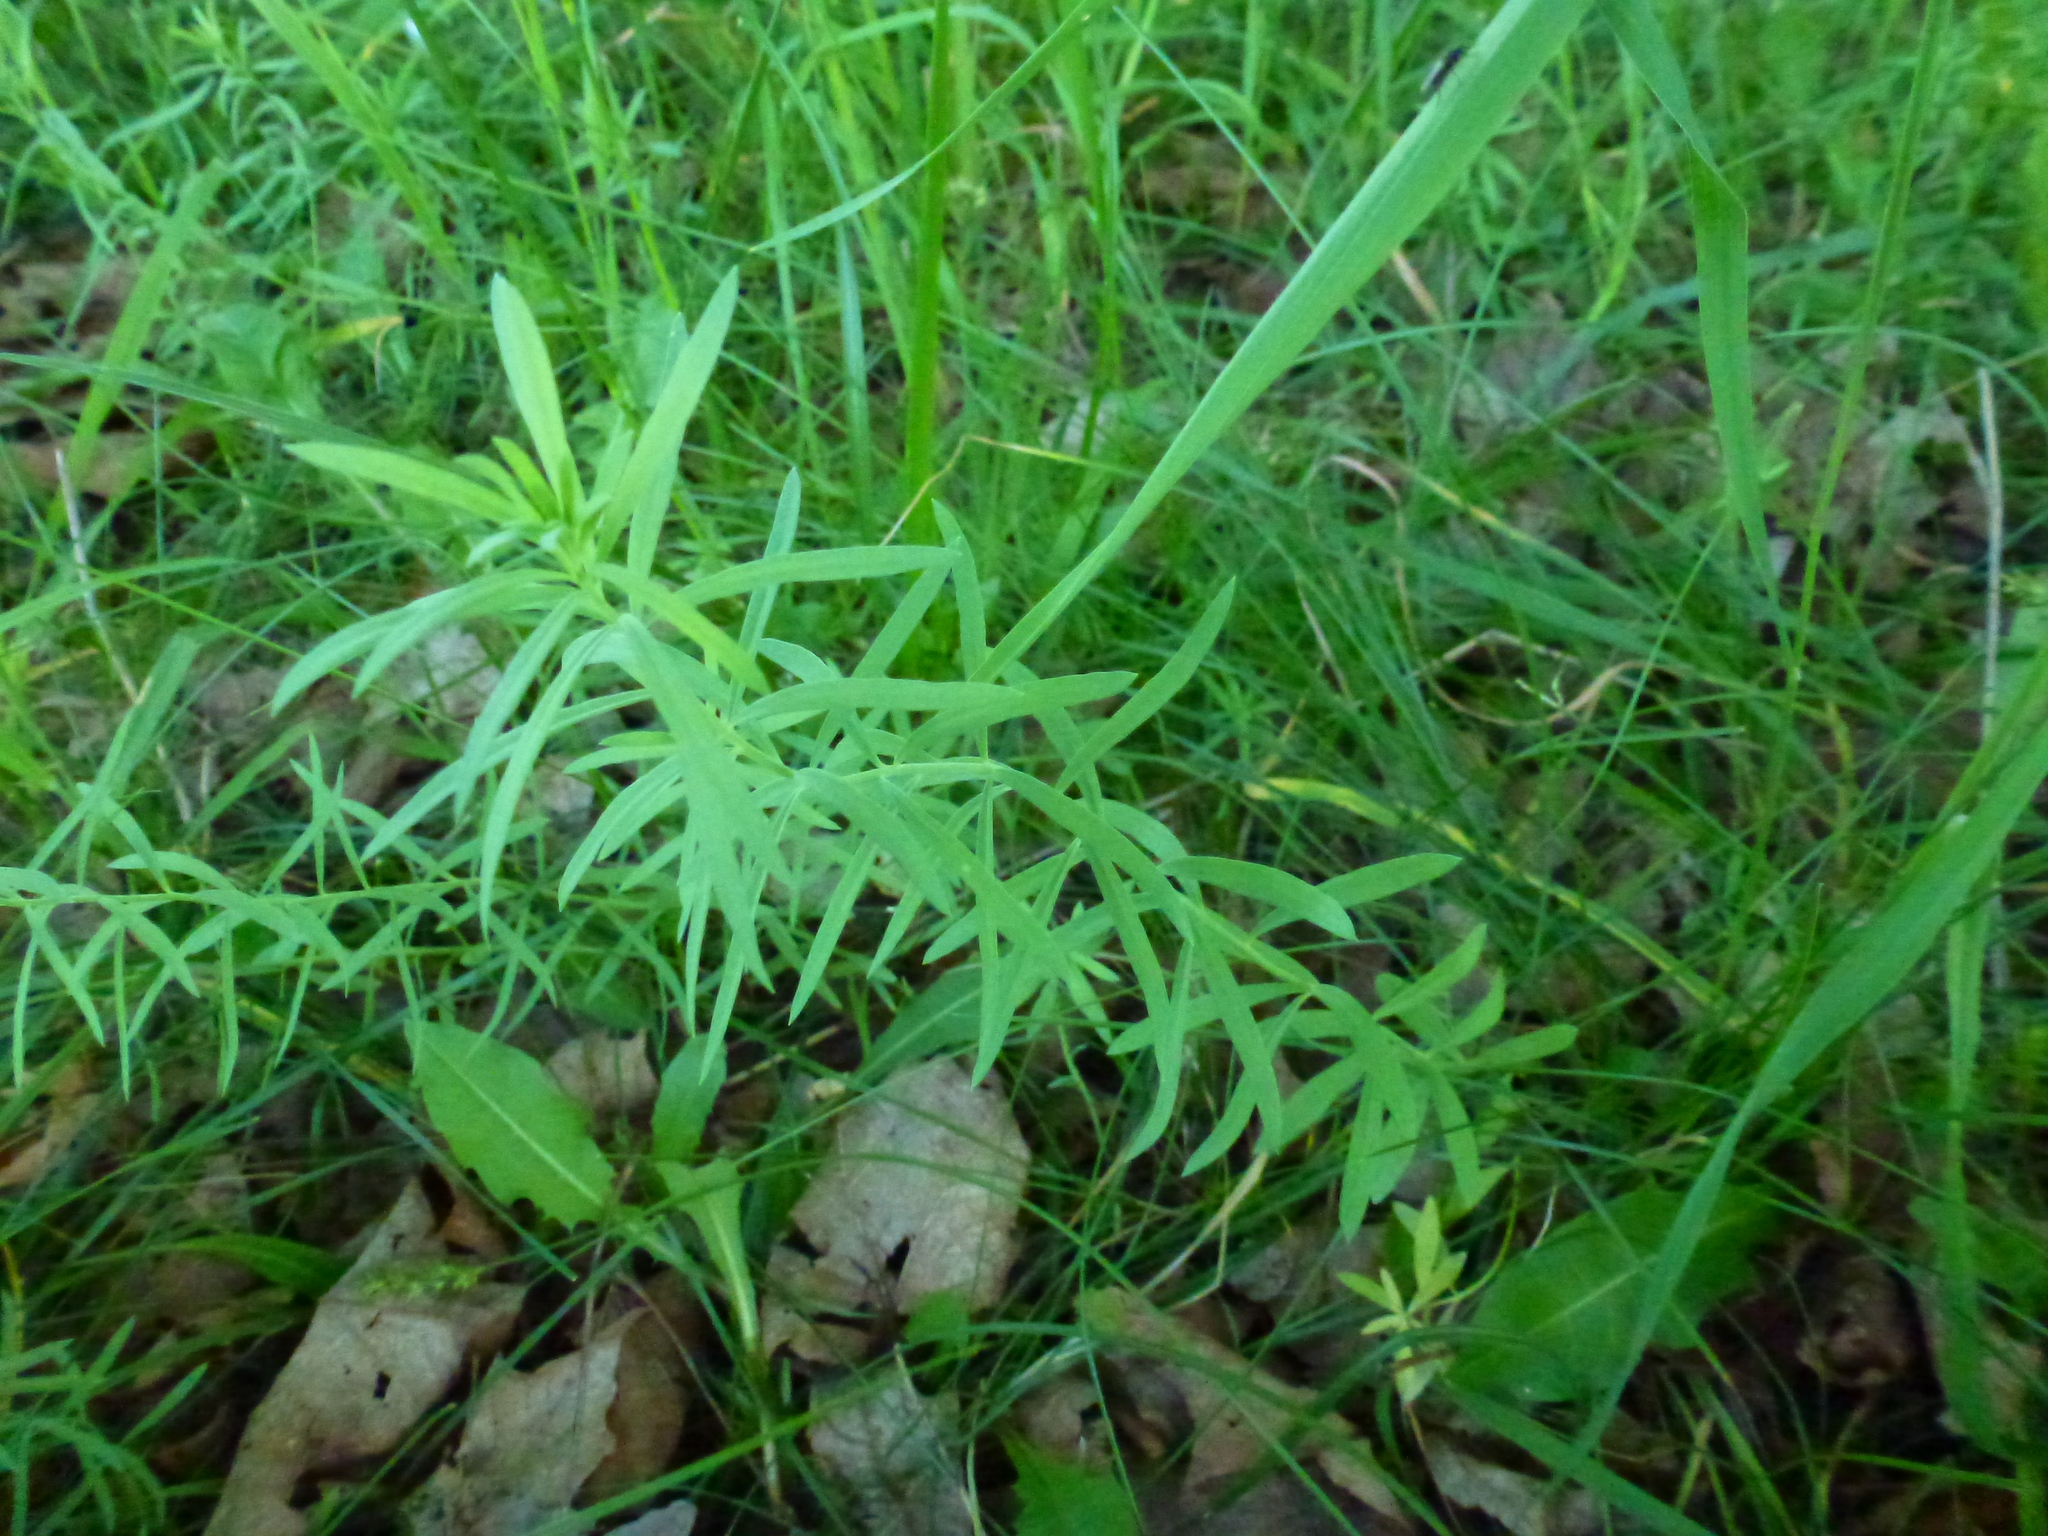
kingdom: Plantae
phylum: Tracheophyta
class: Magnoliopsida
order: Lamiales
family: Plantaginaceae
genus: Linaria
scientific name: Linaria vulgaris
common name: Butter and eggs
